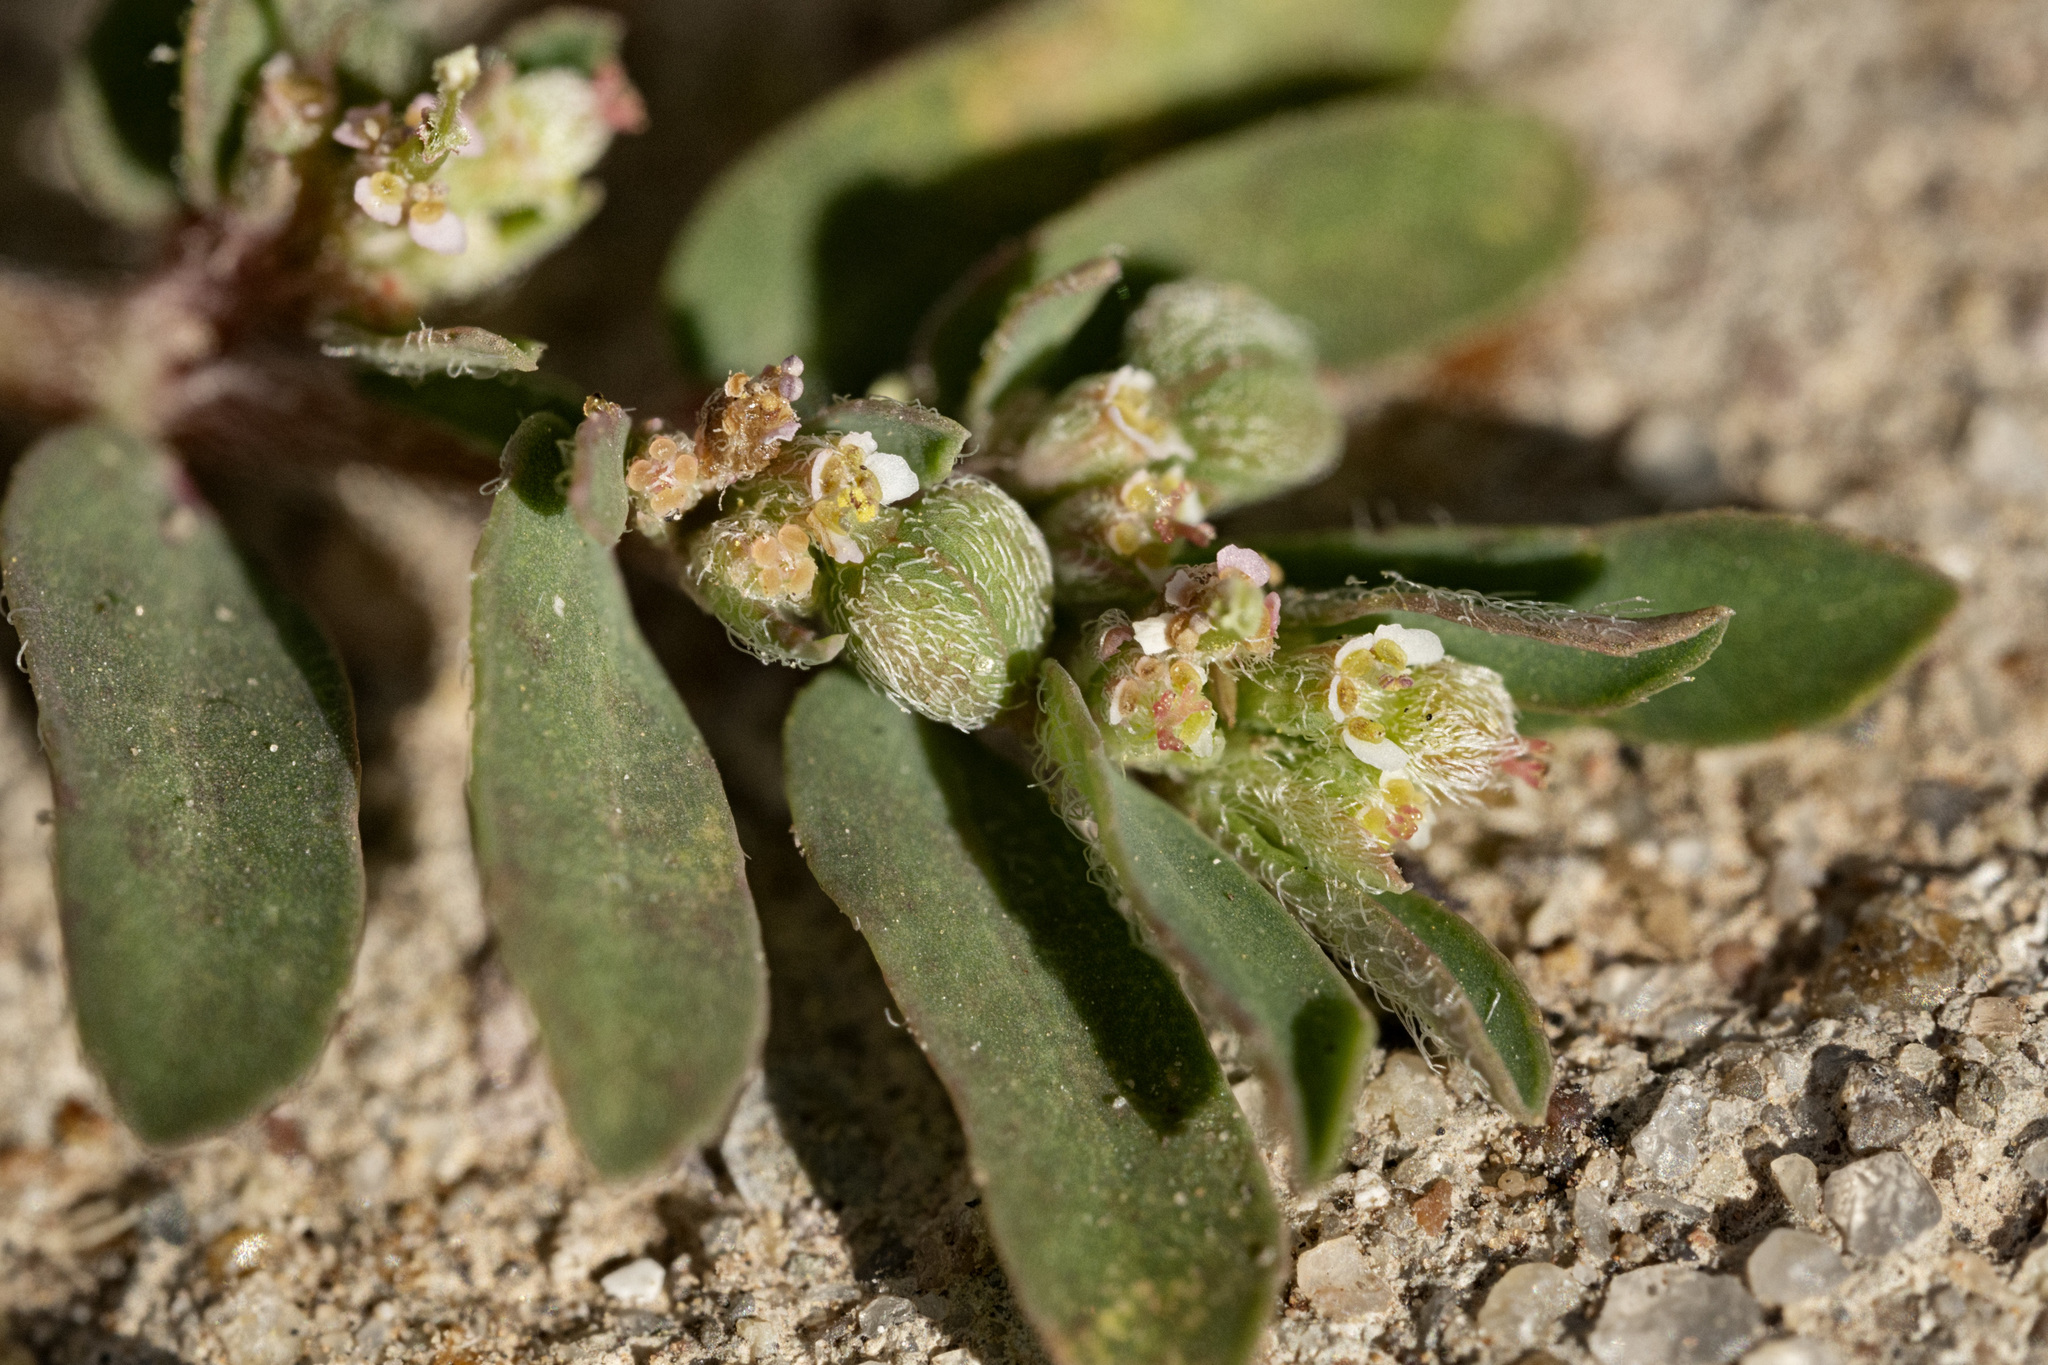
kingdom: Plantae
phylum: Tracheophyta
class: Magnoliopsida
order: Malpighiales
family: Euphorbiaceae
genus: Euphorbia
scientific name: Euphorbia maculata
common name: Spotted spurge
